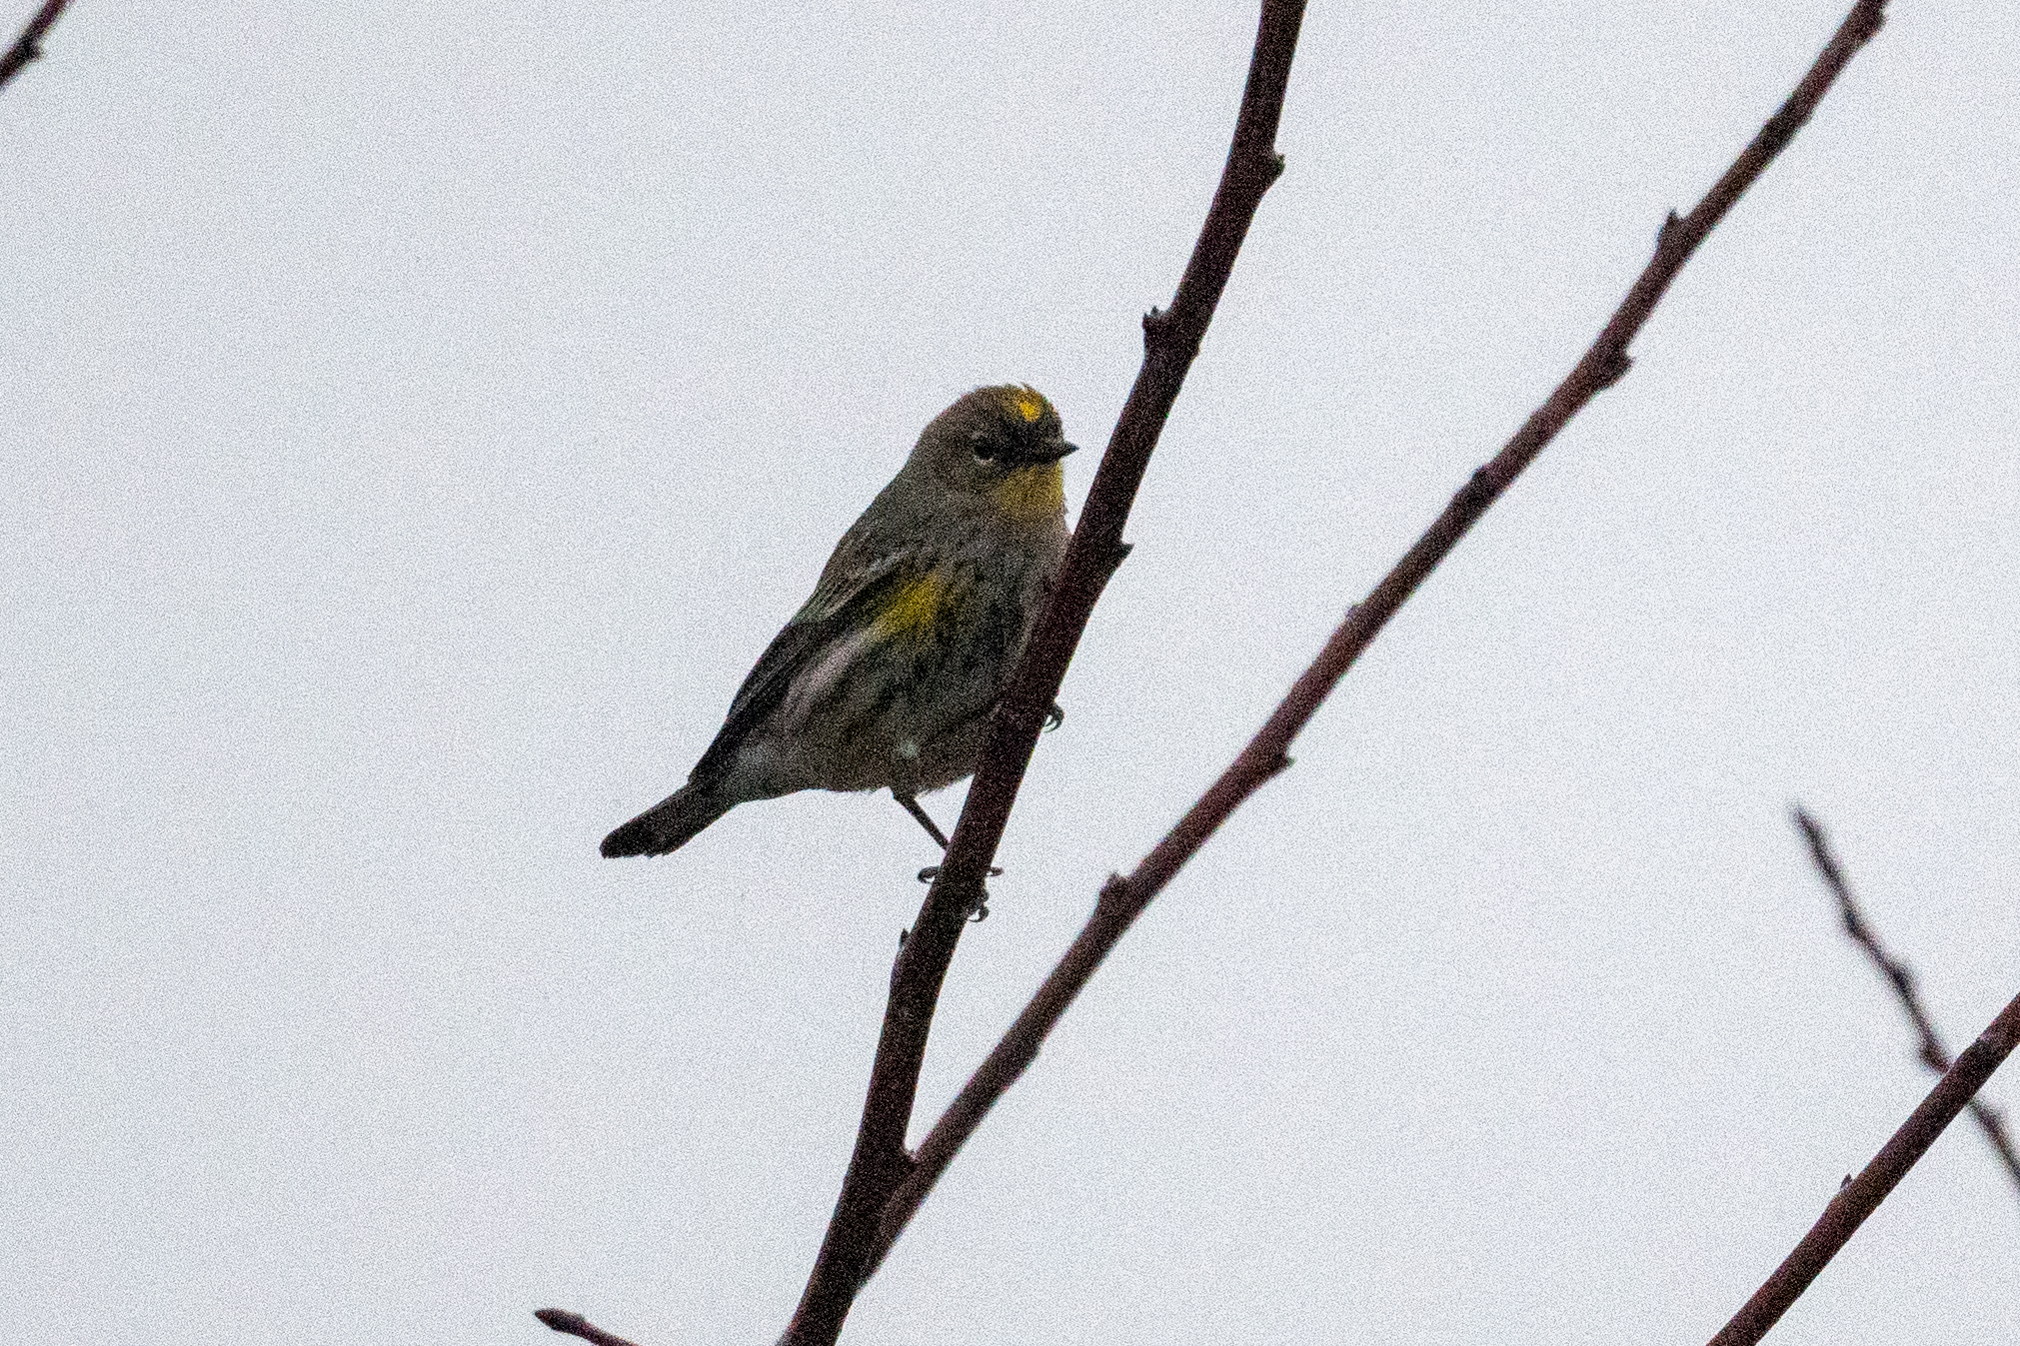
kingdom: Animalia
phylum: Chordata
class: Aves
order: Passeriformes
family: Parulidae
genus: Setophaga
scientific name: Setophaga coronata
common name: Myrtle warbler
